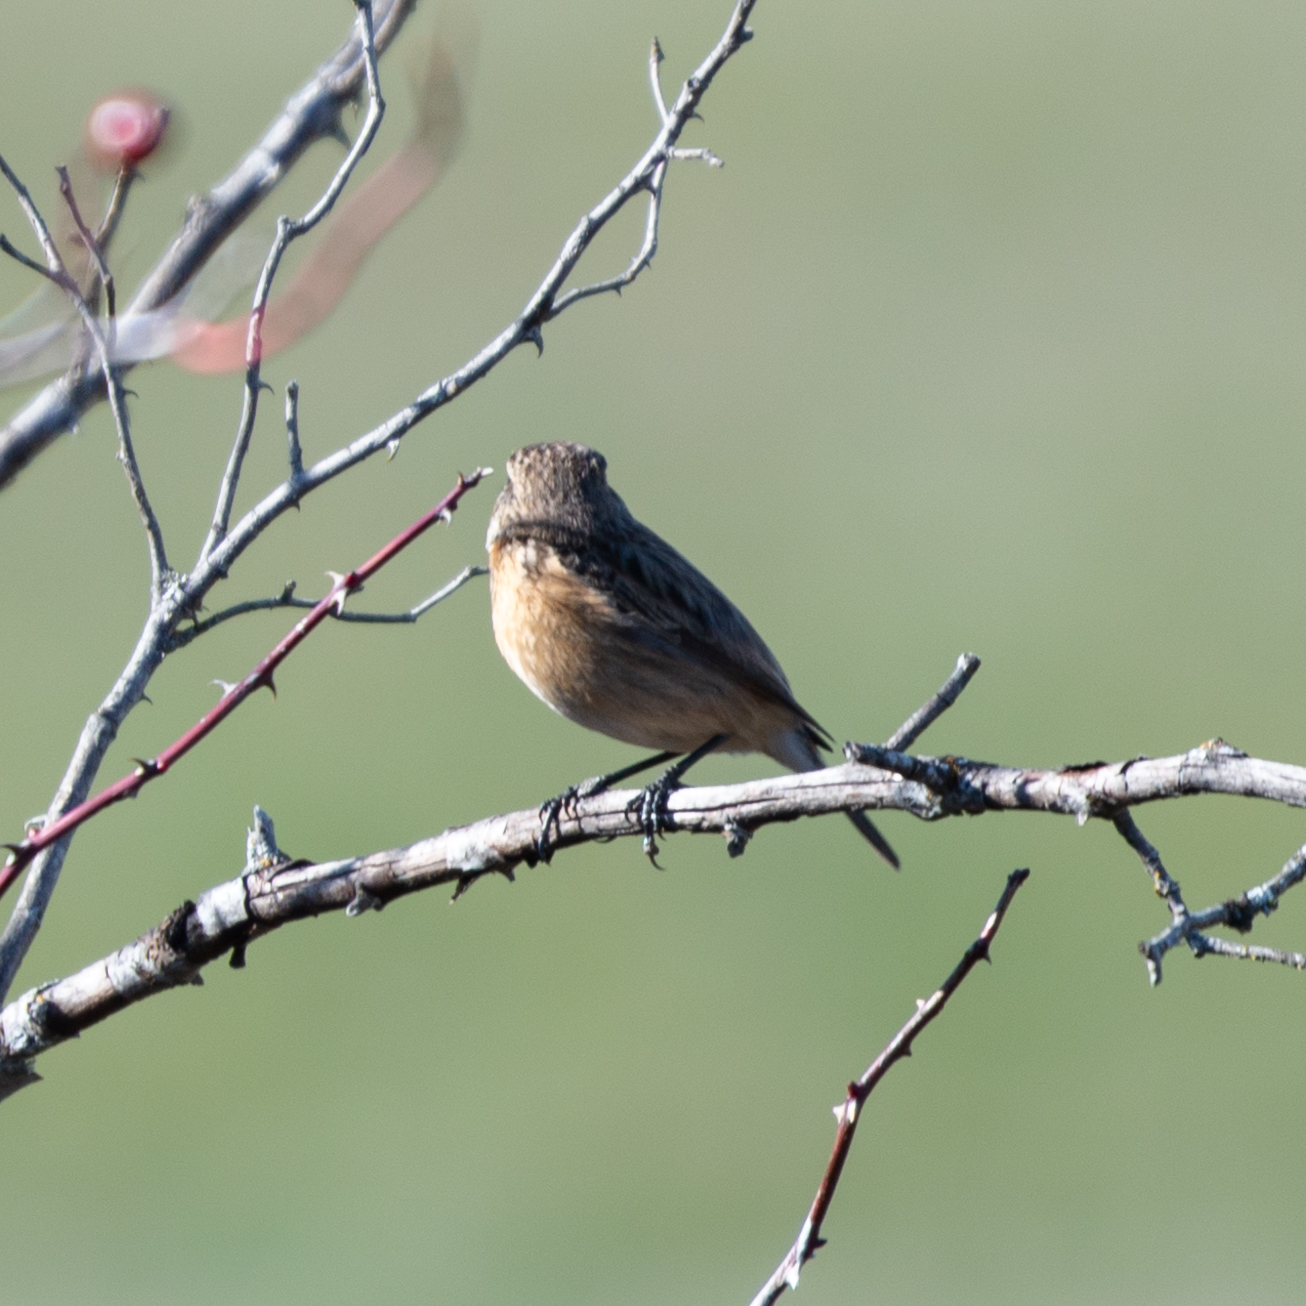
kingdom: Animalia
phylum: Chordata
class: Aves
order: Passeriformes
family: Muscicapidae
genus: Saxicola
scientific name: Saxicola rubicola
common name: European stonechat
